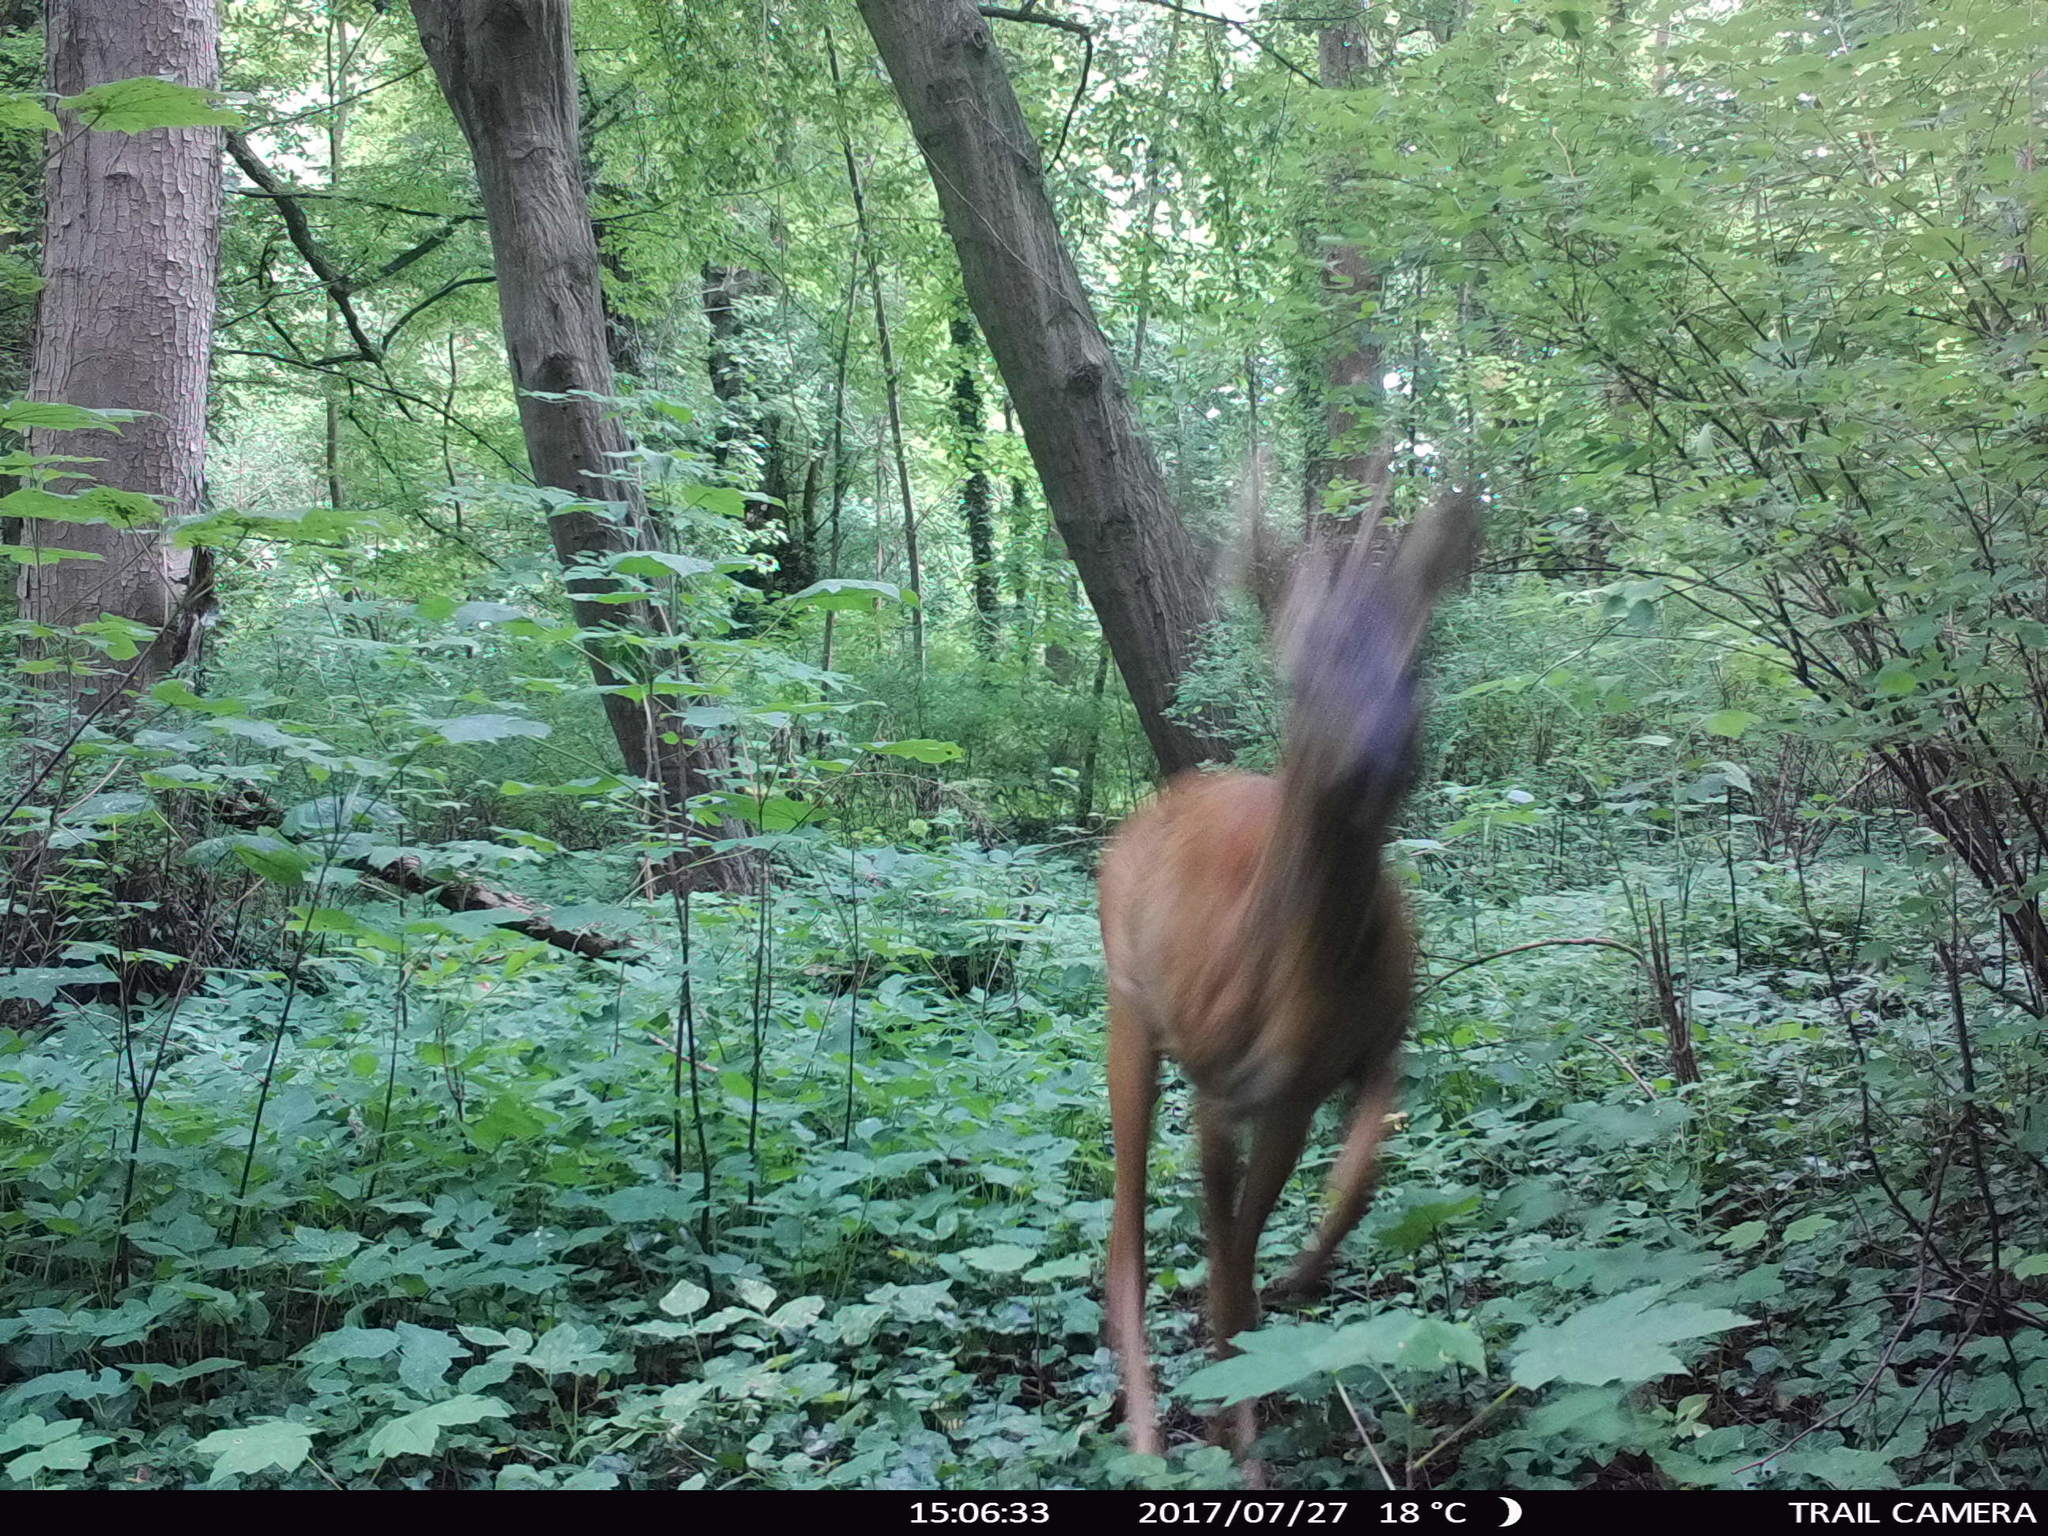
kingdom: Animalia
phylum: Chordata
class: Mammalia
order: Artiodactyla
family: Cervidae
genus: Capreolus
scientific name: Capreolus capreolus
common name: Western roe deer
